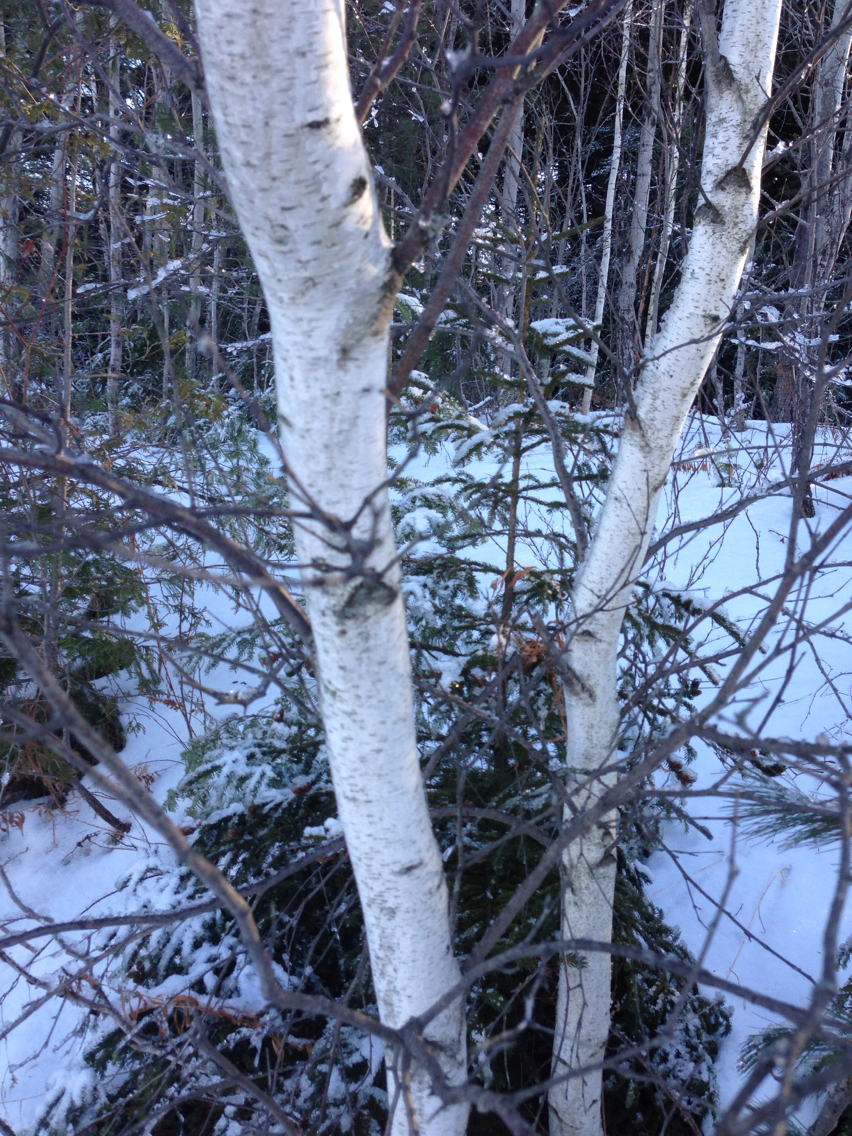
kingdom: Plantae
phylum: Tracheophyta
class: Magnoliopsida
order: Fagales
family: Betulaceae
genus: Betula
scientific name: Betula populifolia
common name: Fire birch
